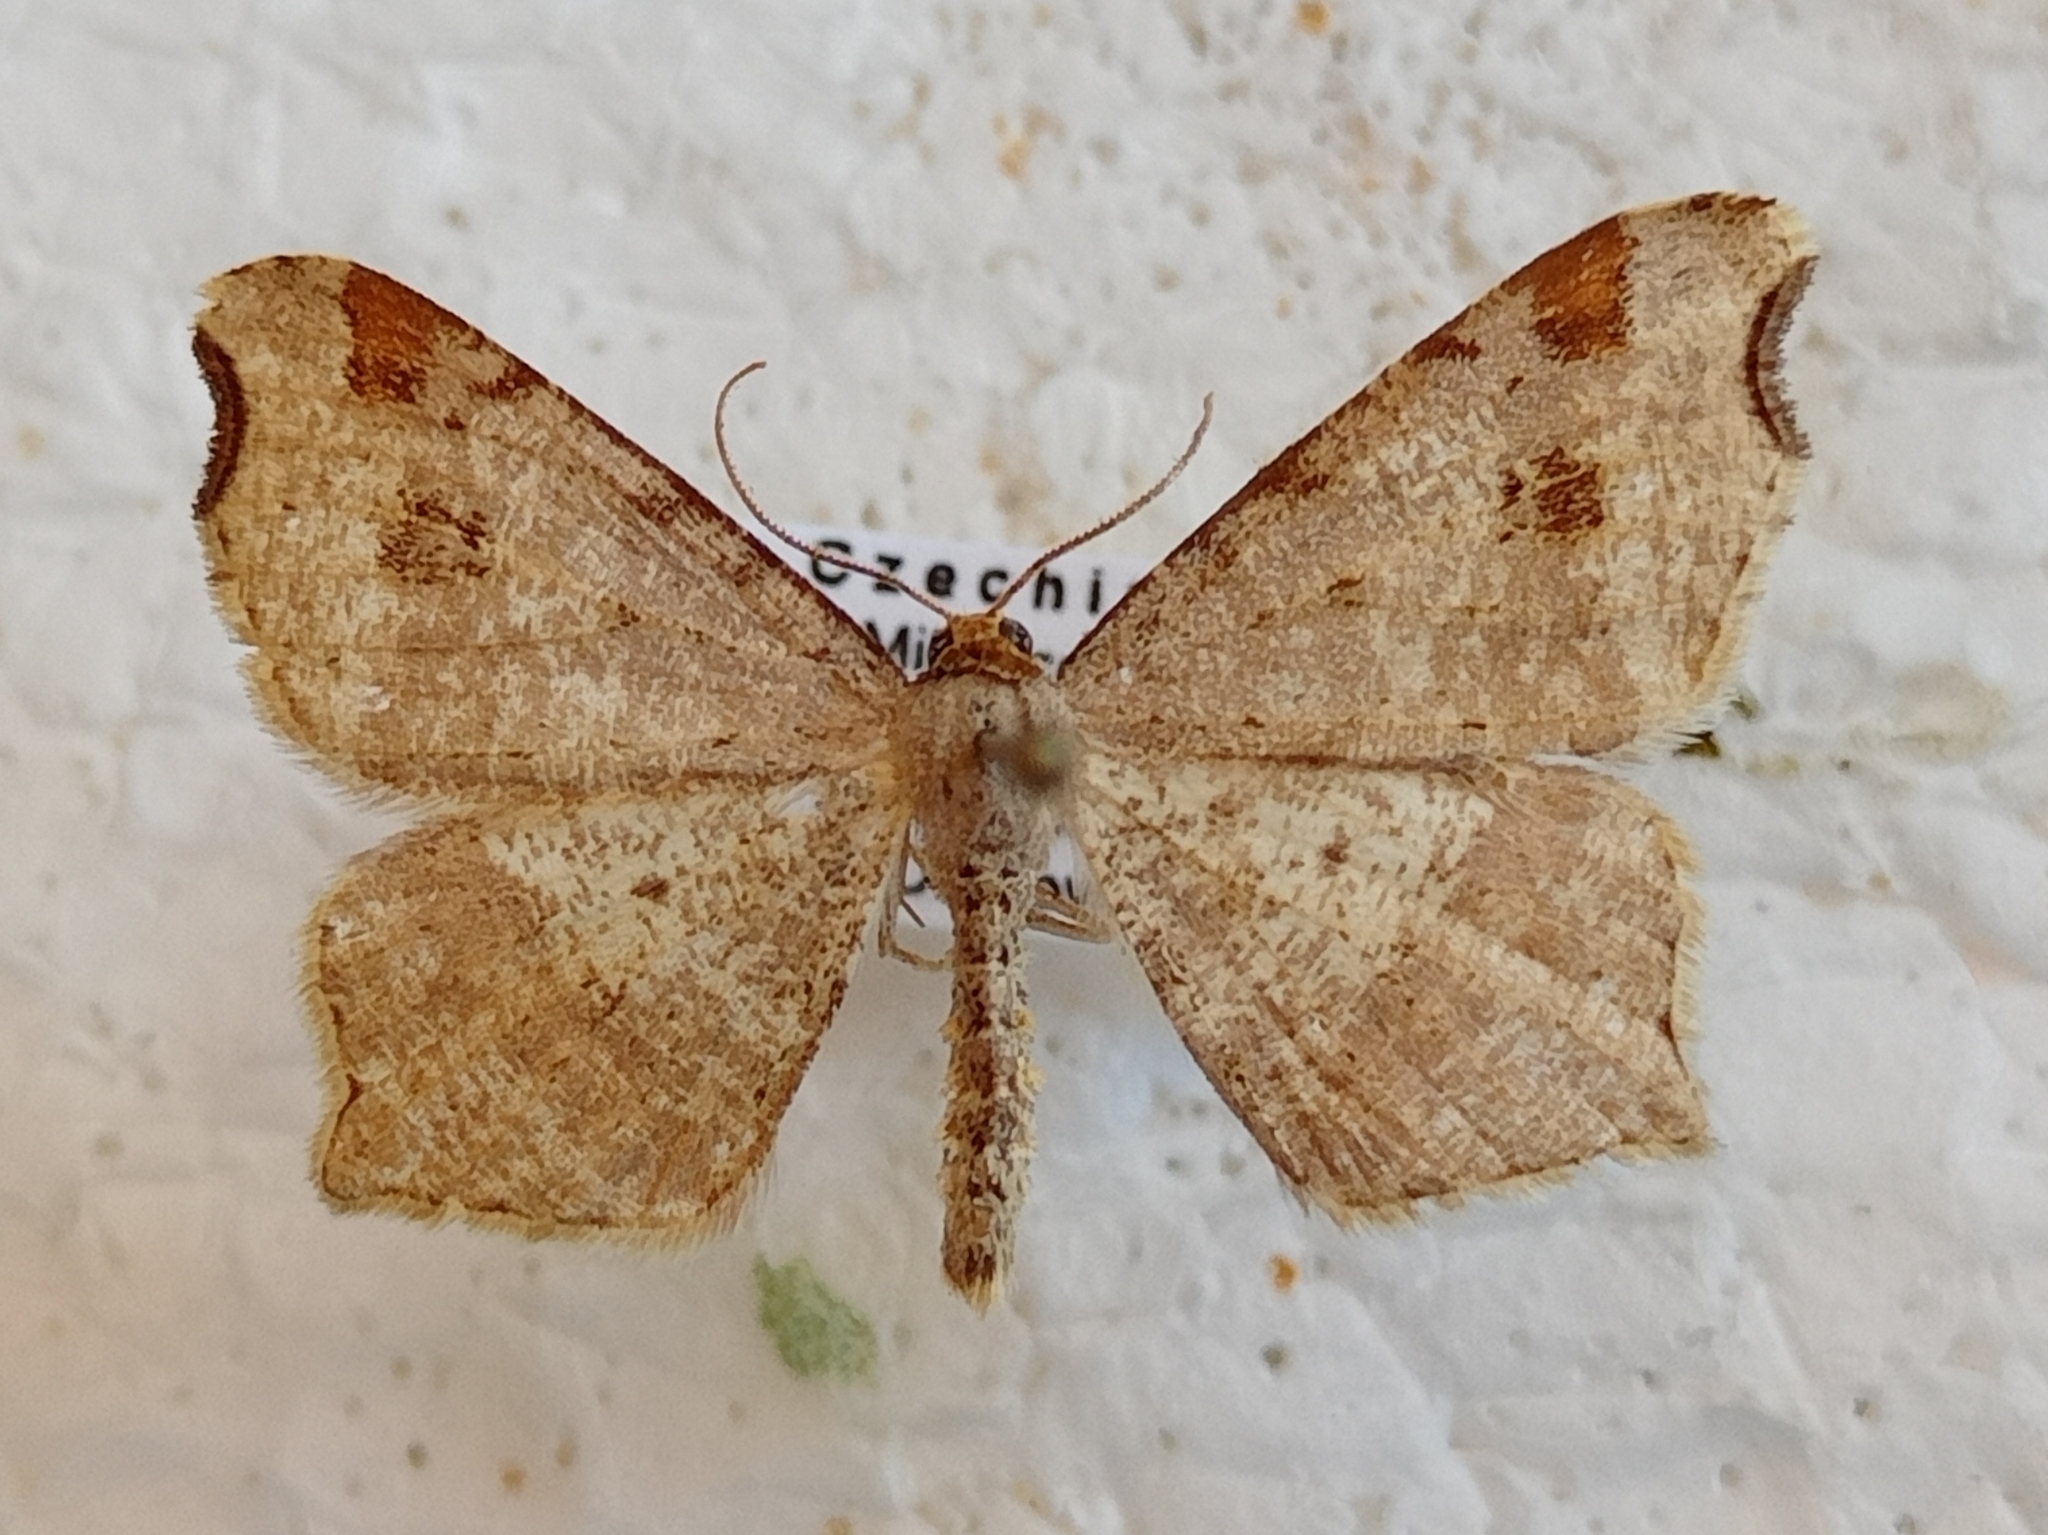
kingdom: Animalia
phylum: Arthropoda
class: Insecta
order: Lepidoptera
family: Geometridae
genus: Macaria
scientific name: Macaria alternata
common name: Sharp-angled peacock
